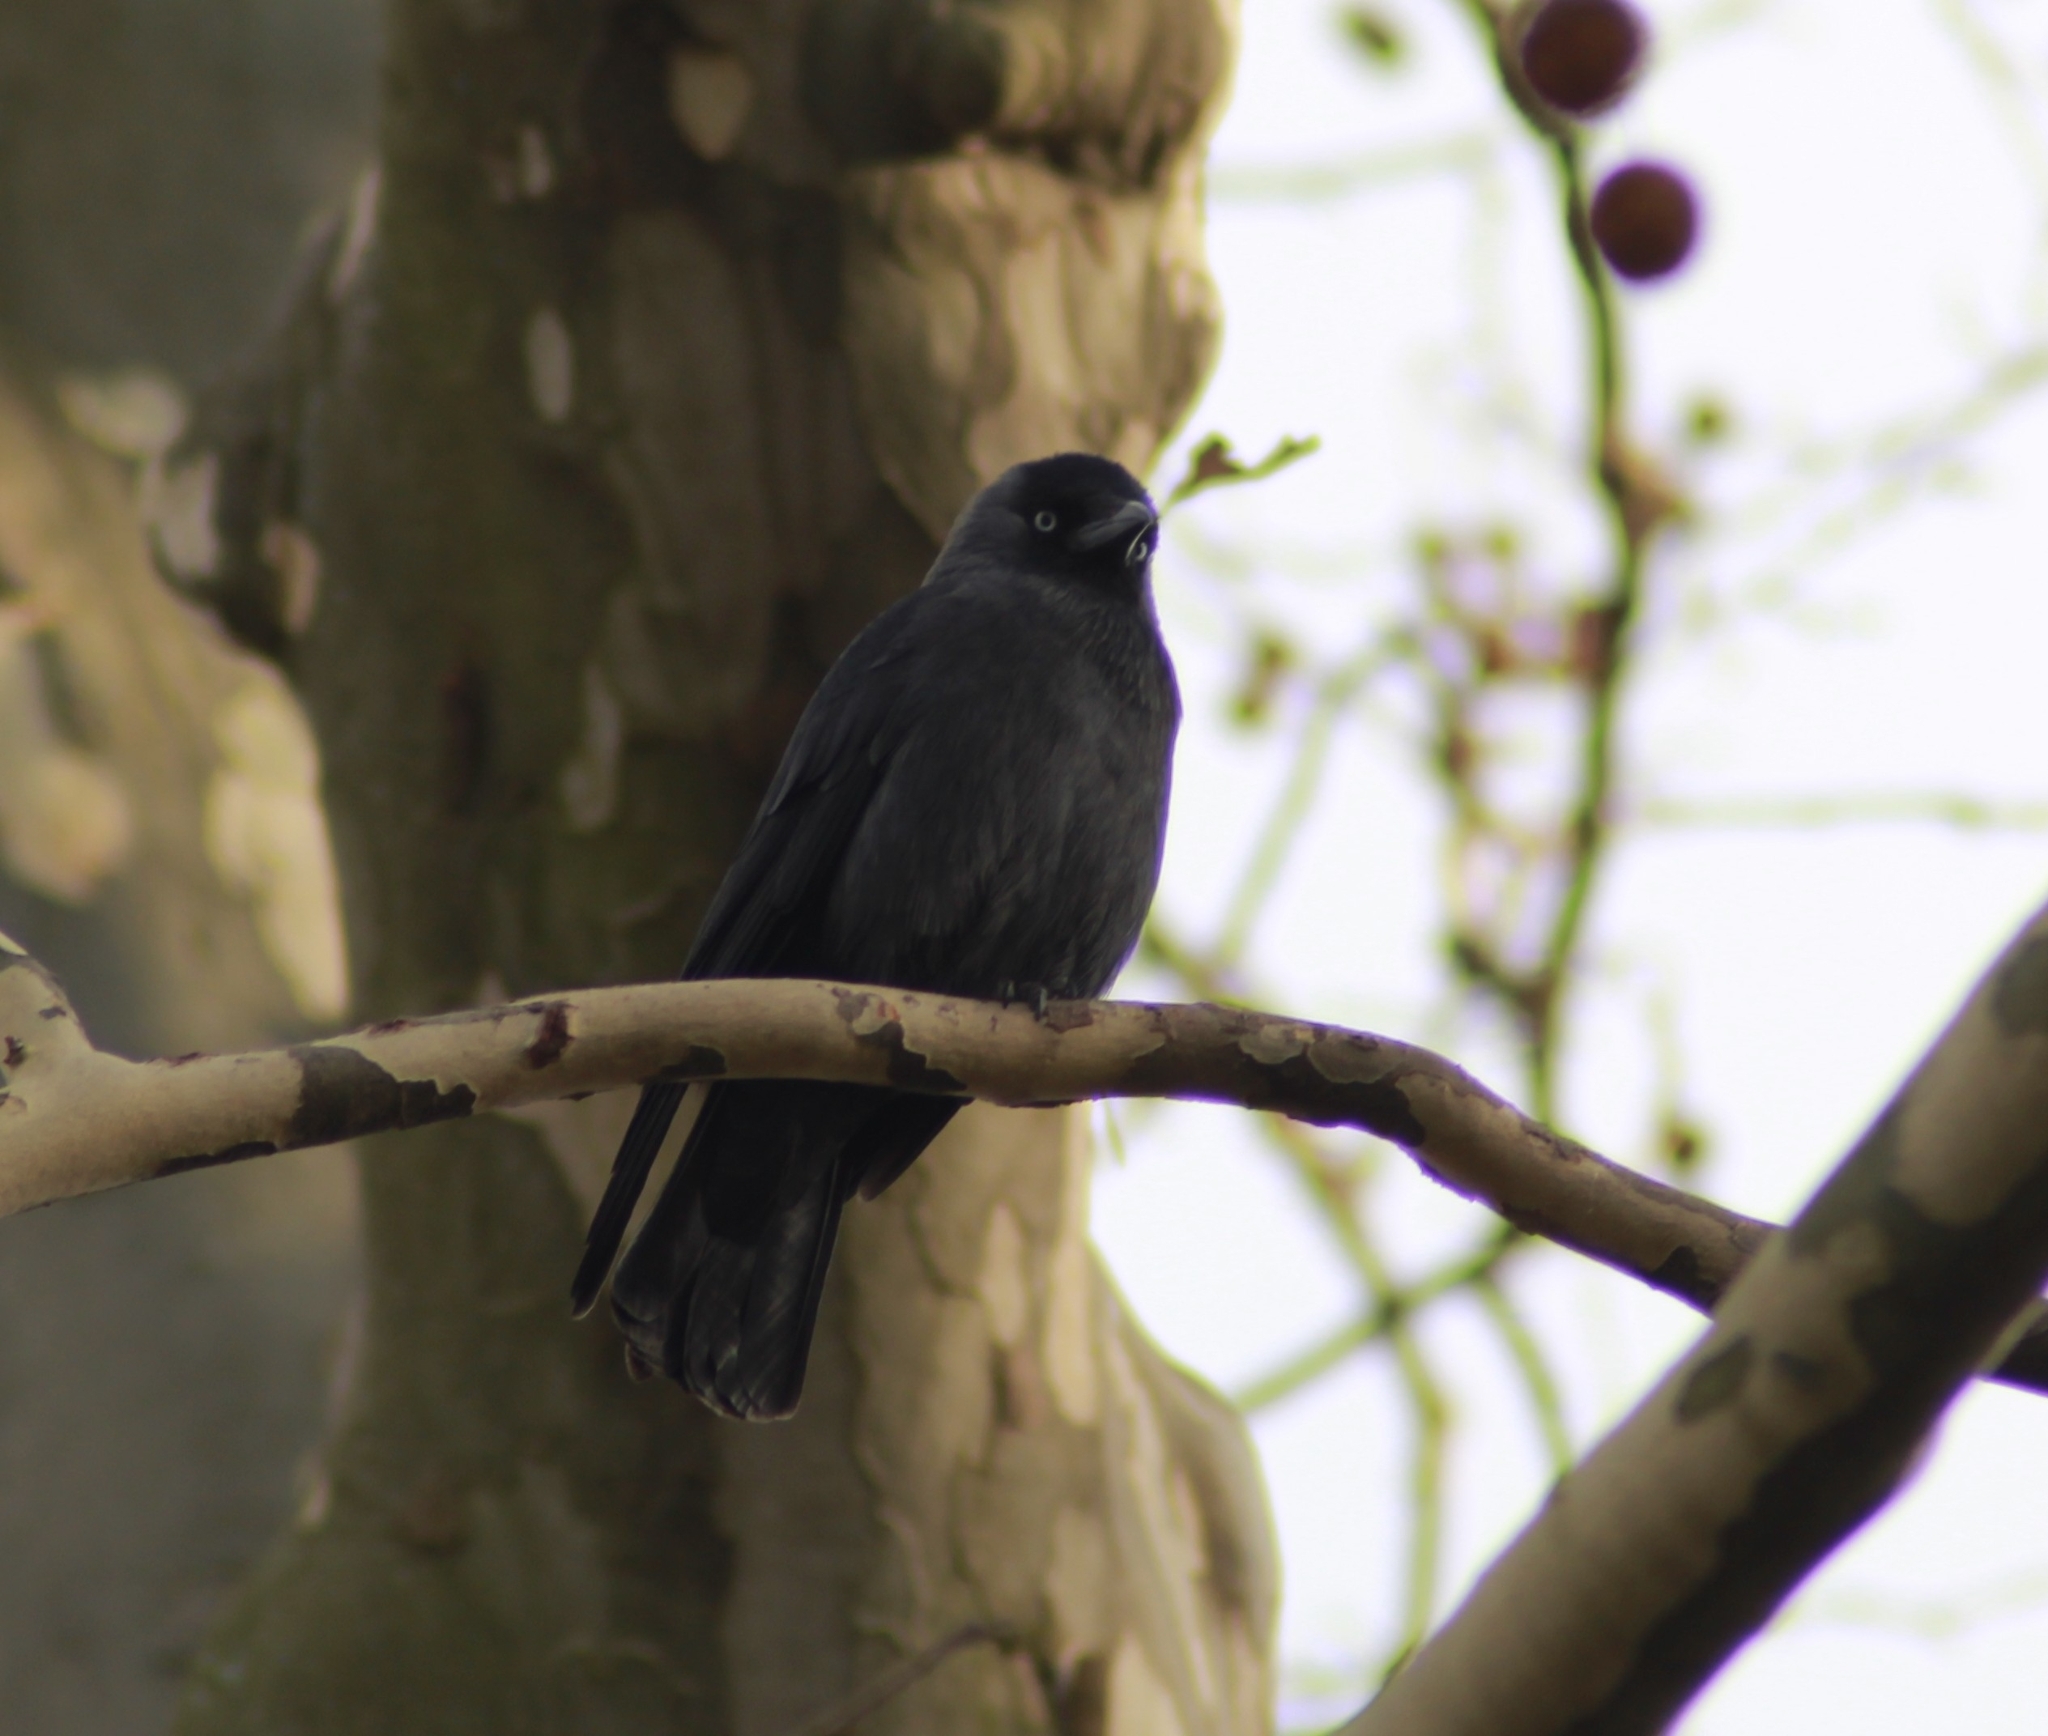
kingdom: Animalia
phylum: Chordata
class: Aves
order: Passeriformes
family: Corvidae
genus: Coloeus
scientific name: Coloeus monedula
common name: Western jackdaw
